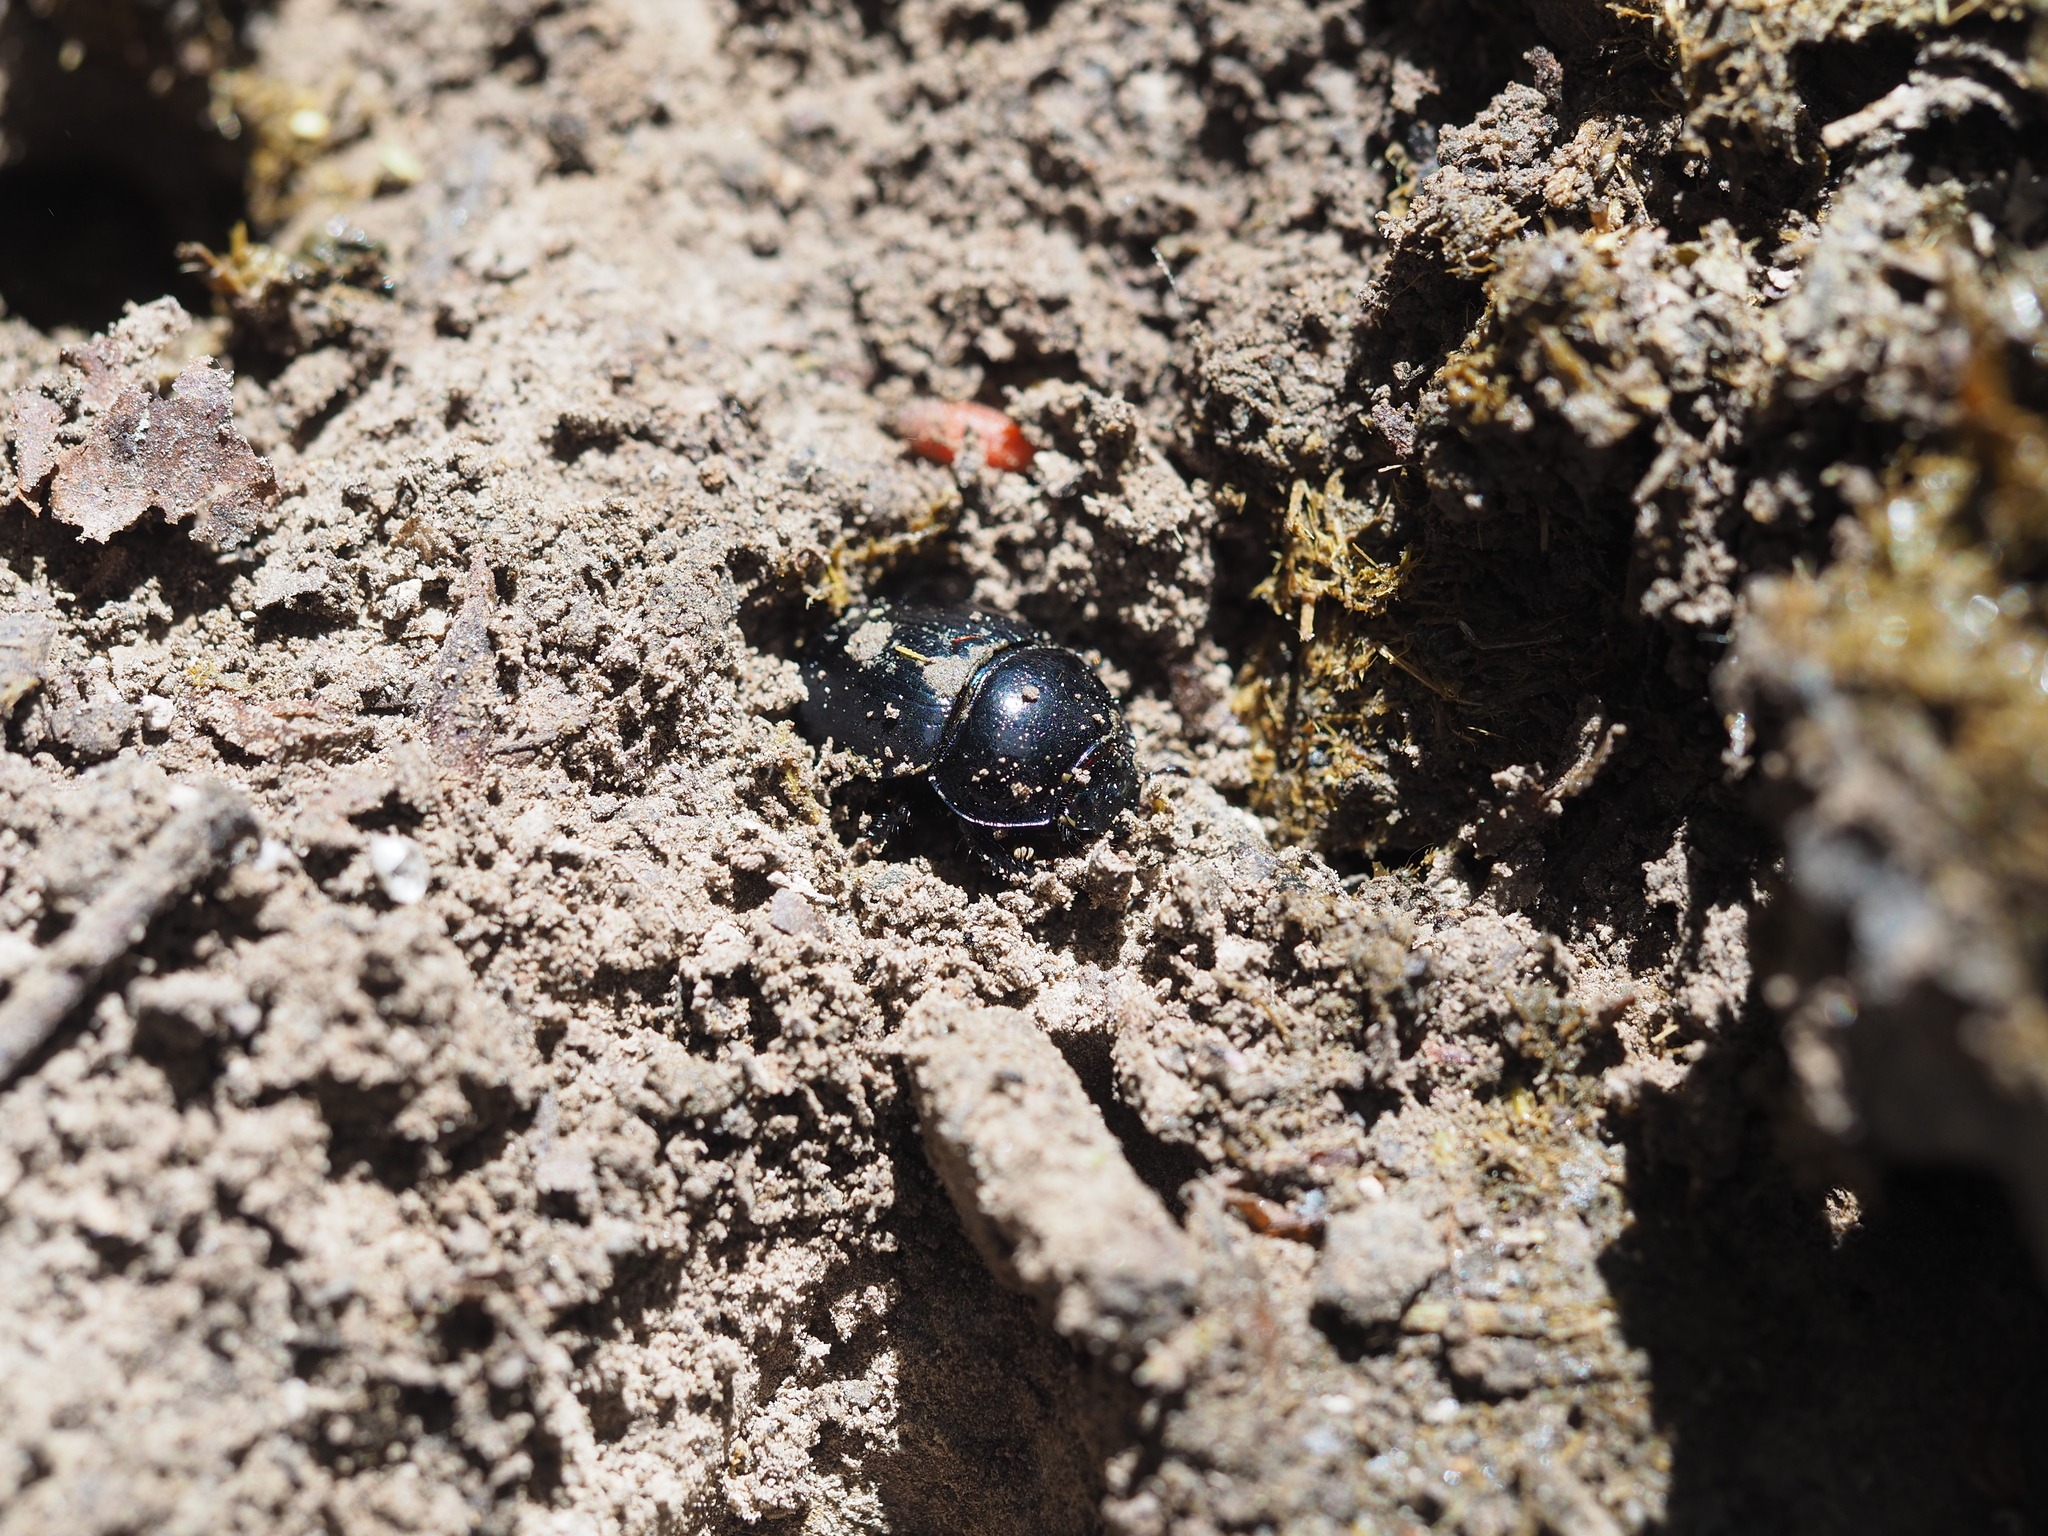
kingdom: Animalia
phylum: Arthropoda
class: Insecta
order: Coleoptera
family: Geotrupidae
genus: Anoplotrupes
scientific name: Anoplotrupes stercorosus
